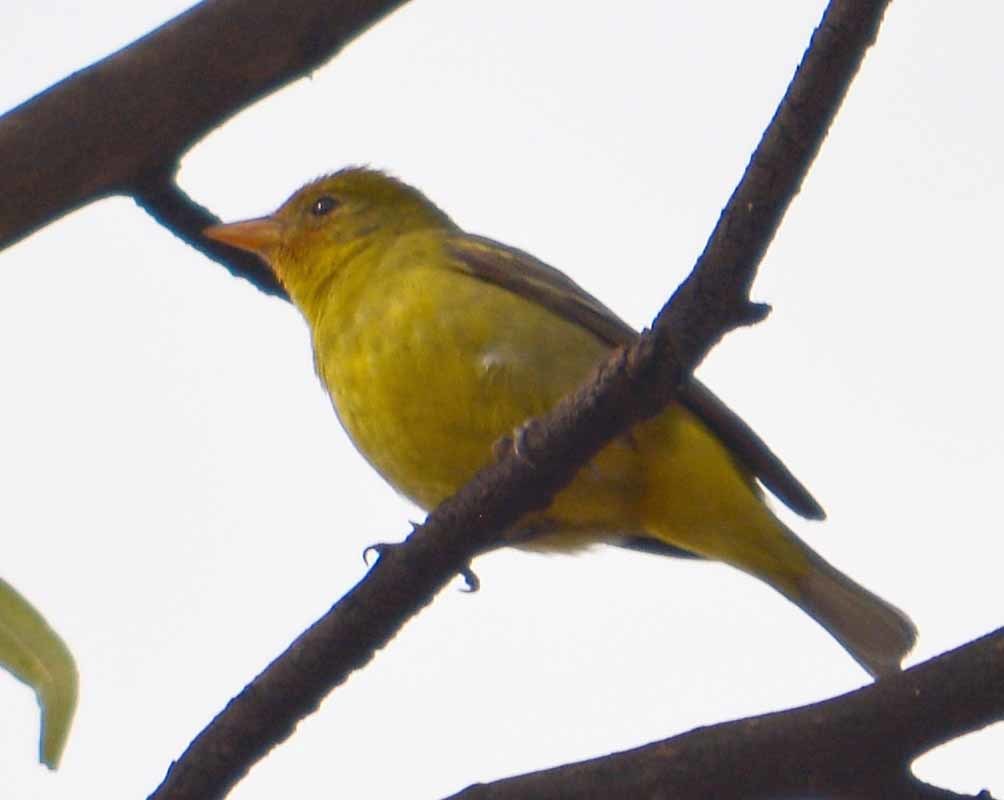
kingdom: Animalia
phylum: Chordata
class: Aves
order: Passeriformes
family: Cardinalidae
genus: Piranga
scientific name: Piranga ludoviciana
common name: Western tanager
